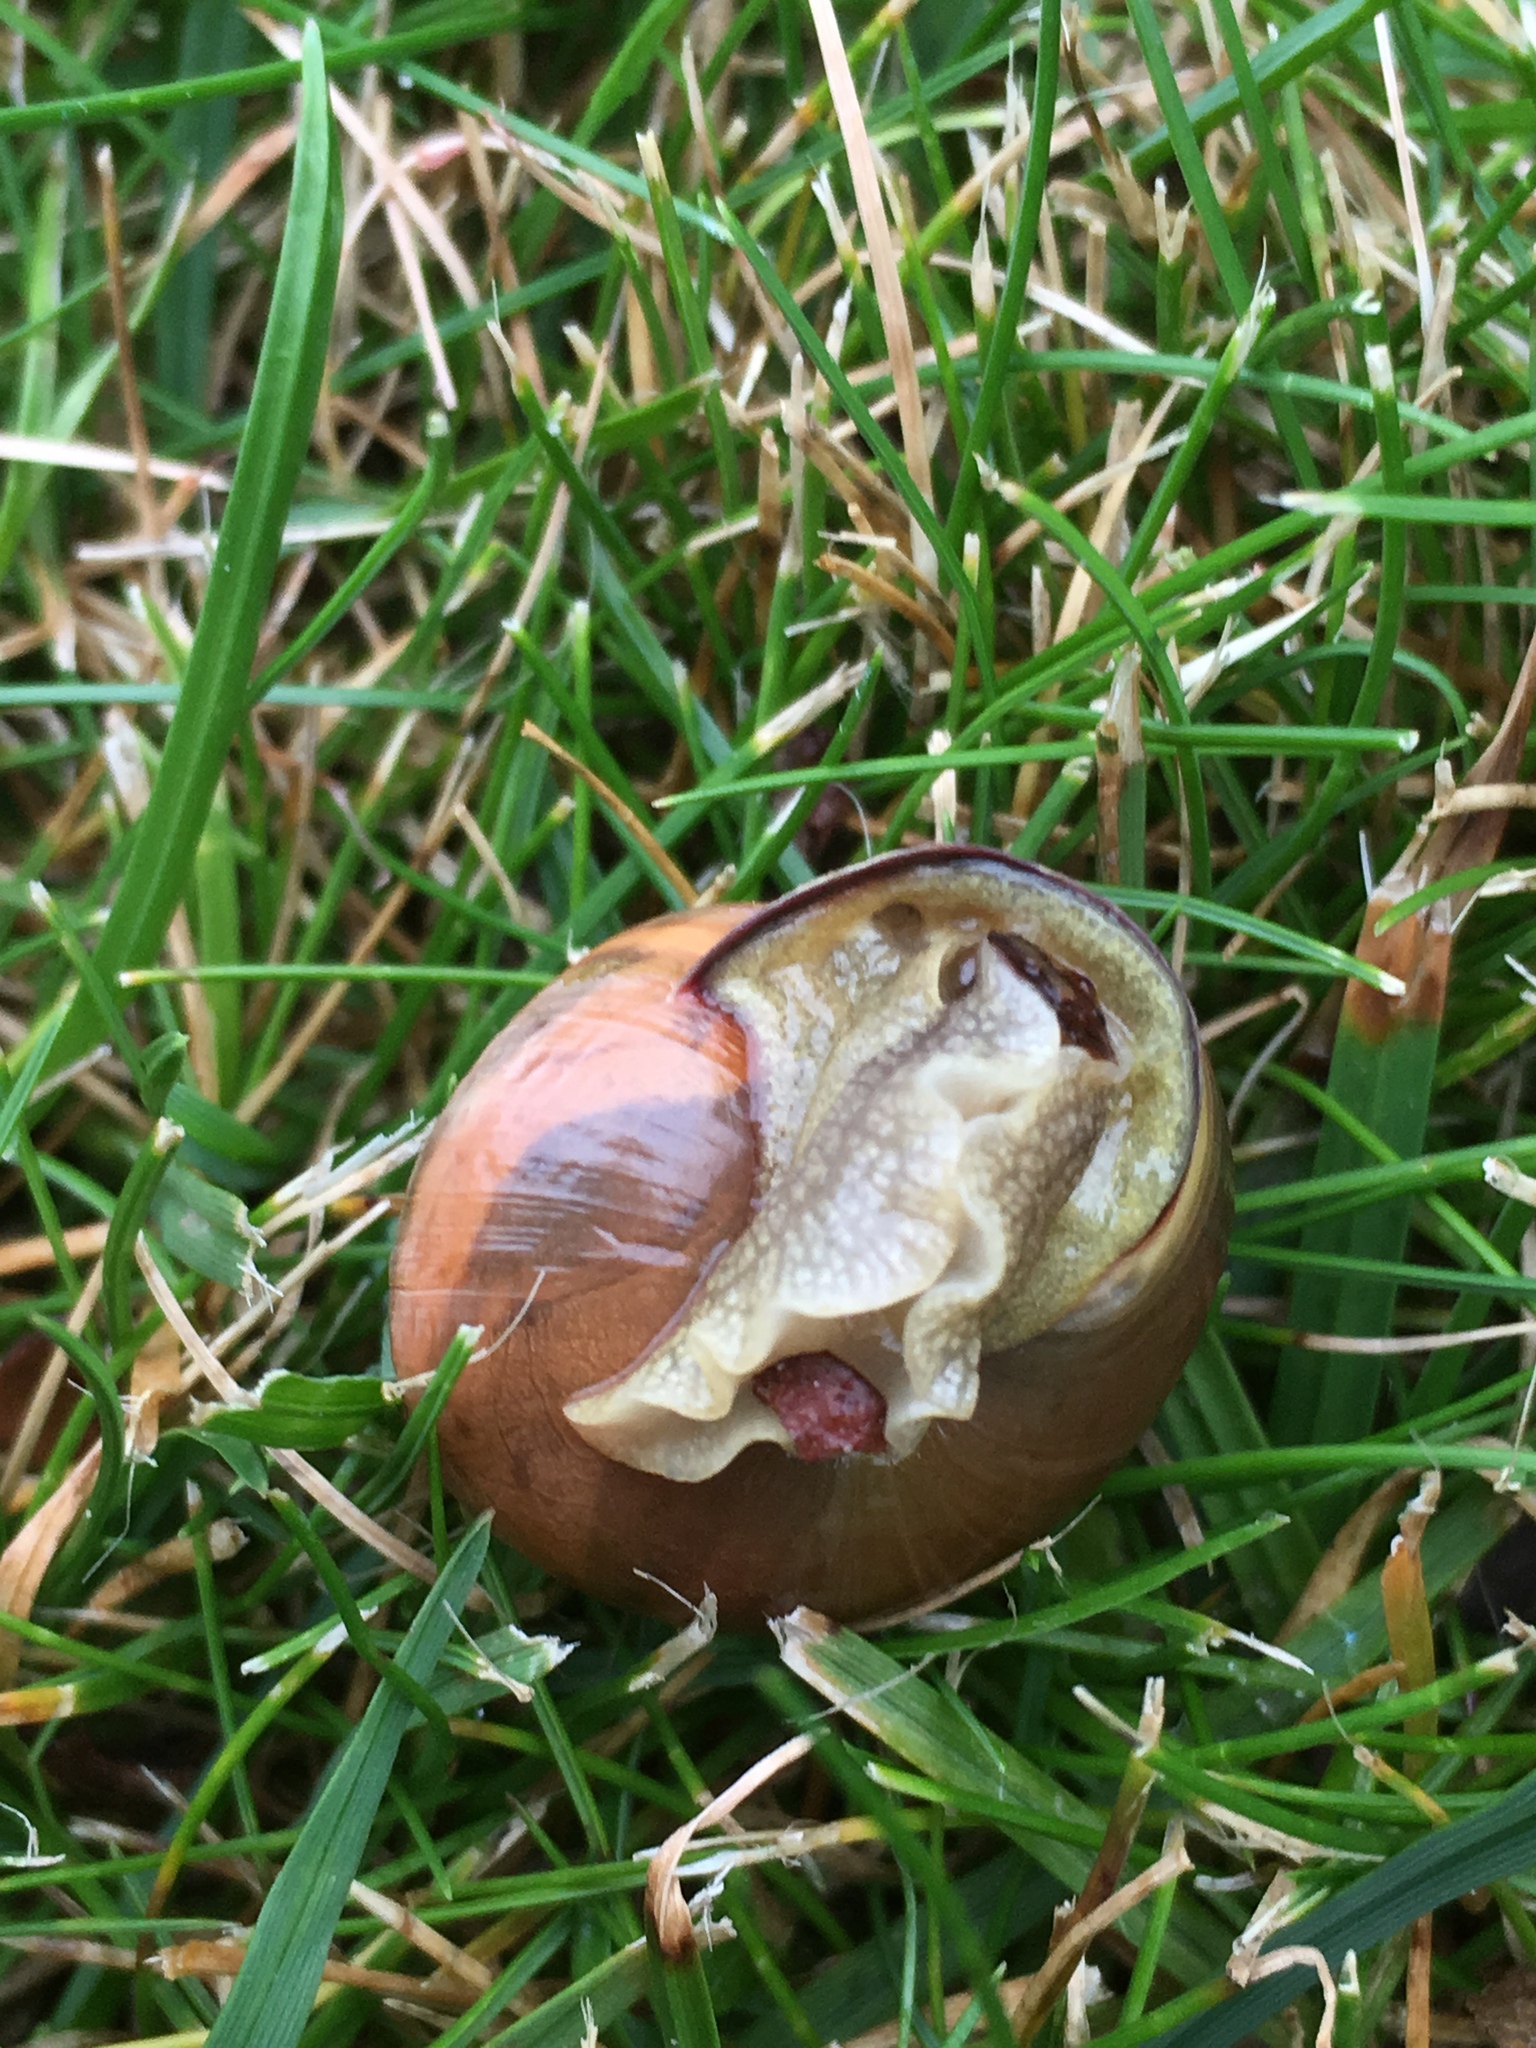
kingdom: Animalia
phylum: Mollusca
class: Gastropoda
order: Stylommatophora
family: Helicidae
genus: Cepaea
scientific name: Cepaea nemoralis
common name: Grovesnail
